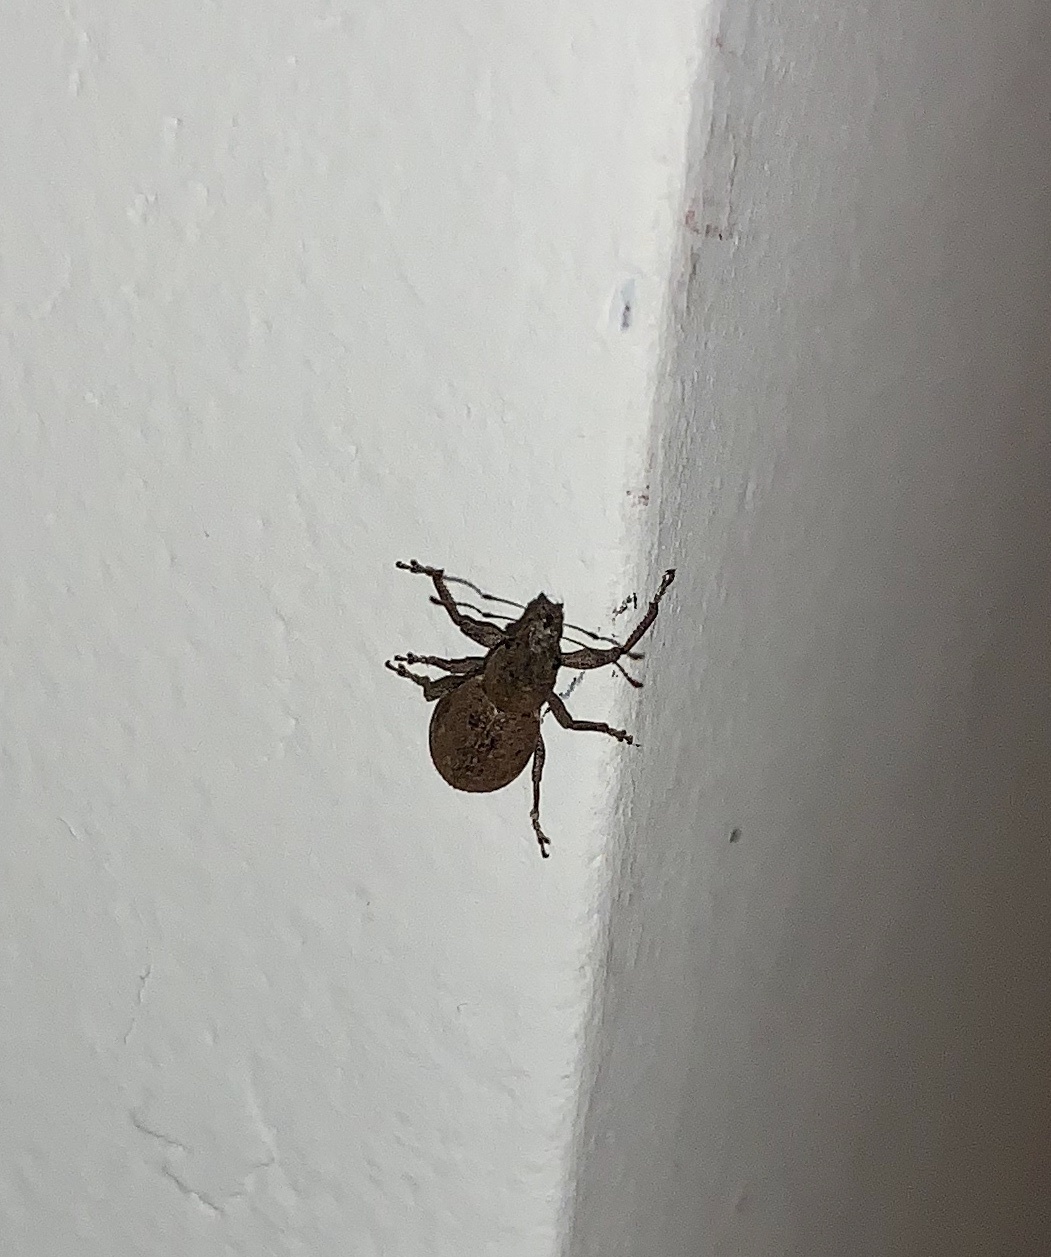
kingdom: Animalia
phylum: Arthropoda
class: Insecta
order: Coleoptera
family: Curculionidae
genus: Naupactus
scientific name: Naupactus cervinus
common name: Fuller rose beetle
